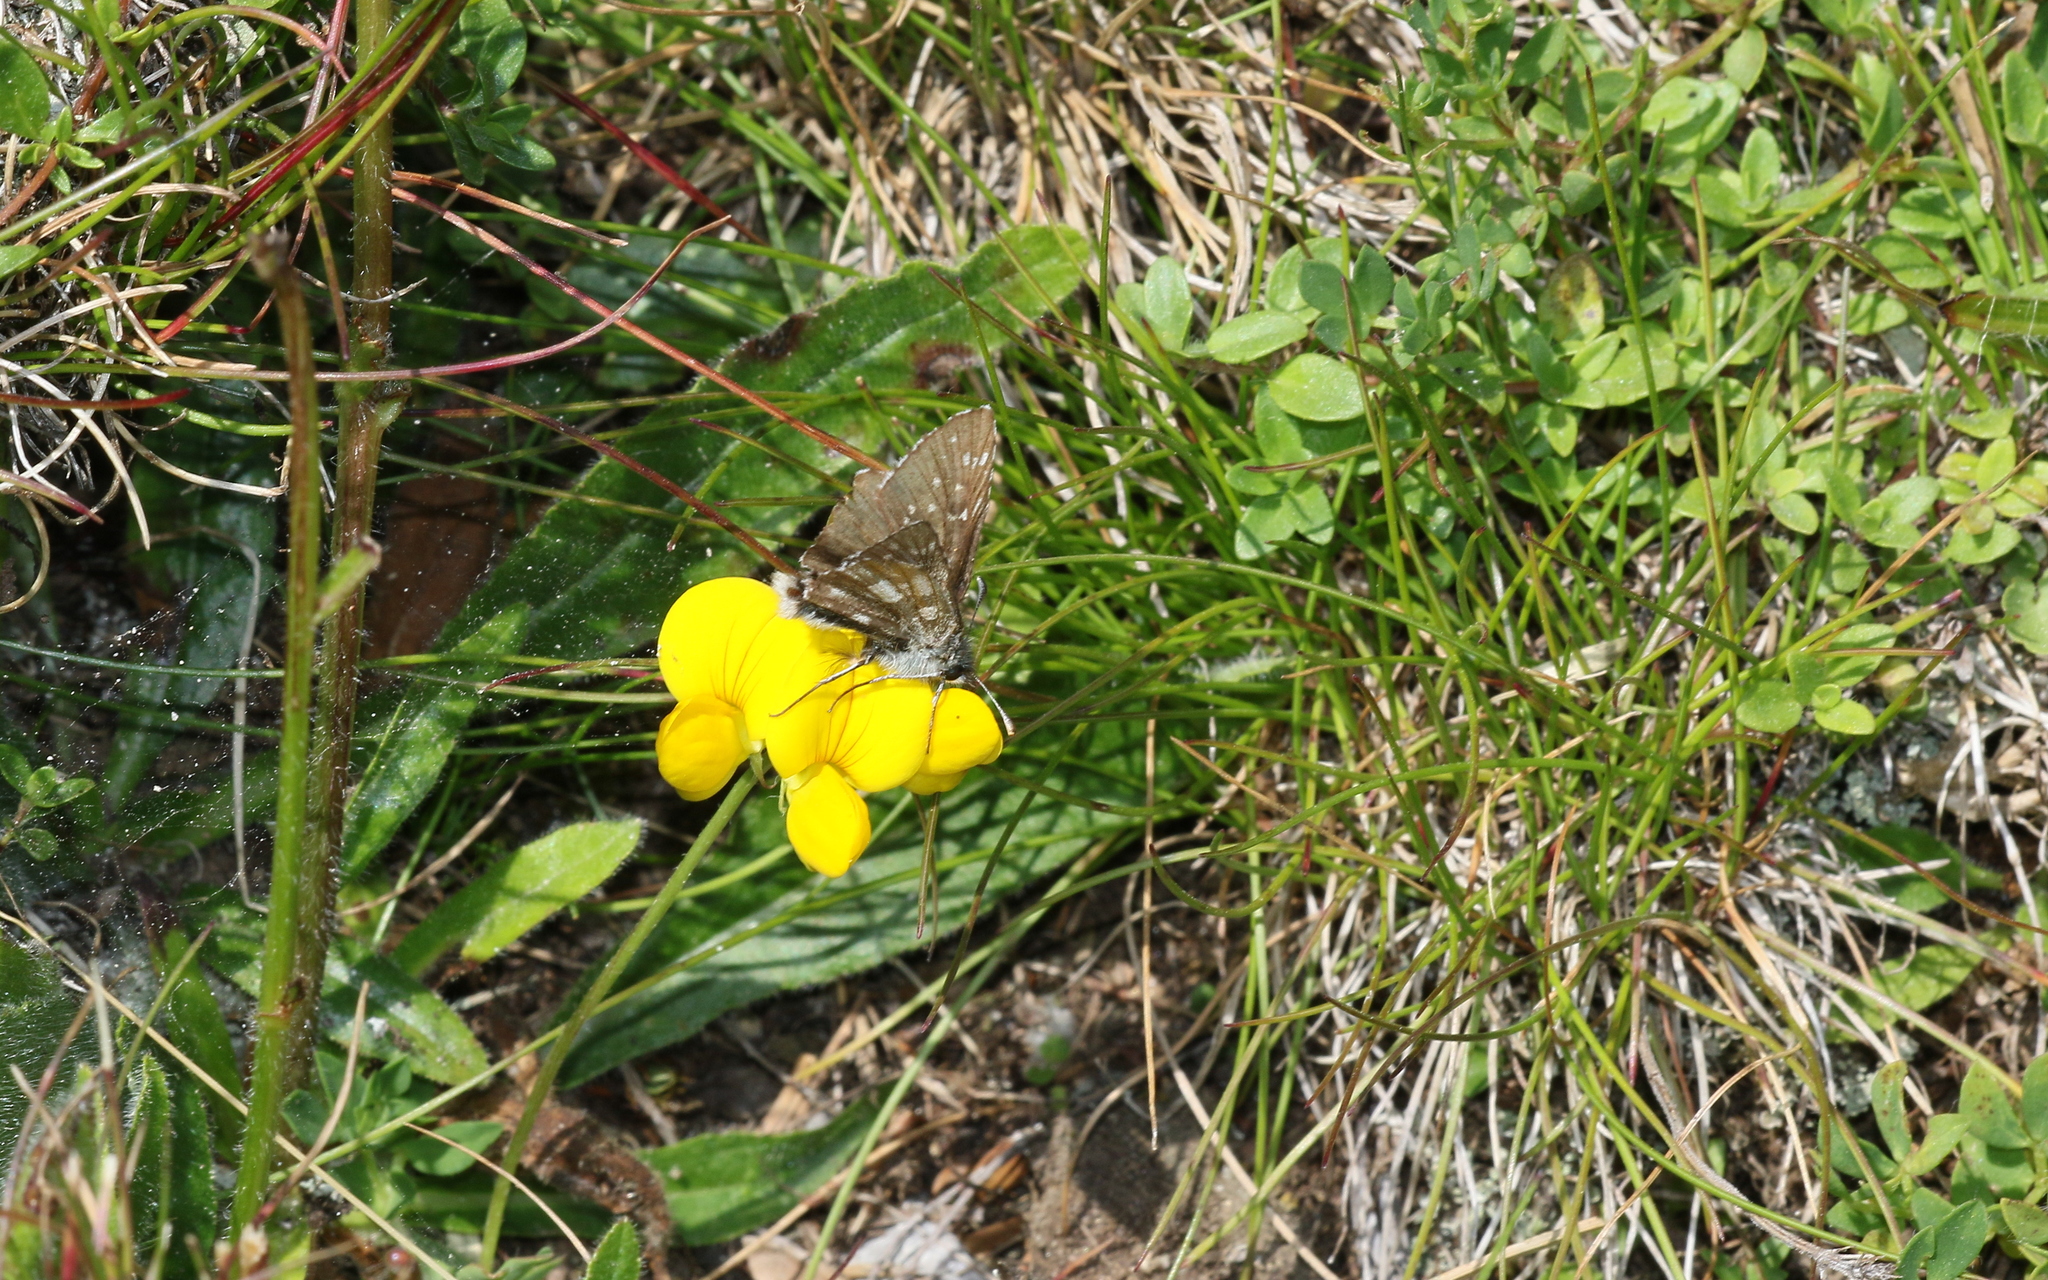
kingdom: Animalia
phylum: Arthropoda
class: Insecta
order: Lepidoptera
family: Hesperiidae
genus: Pyrgus
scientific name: Pyrgus serratulae
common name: Olive skipper
